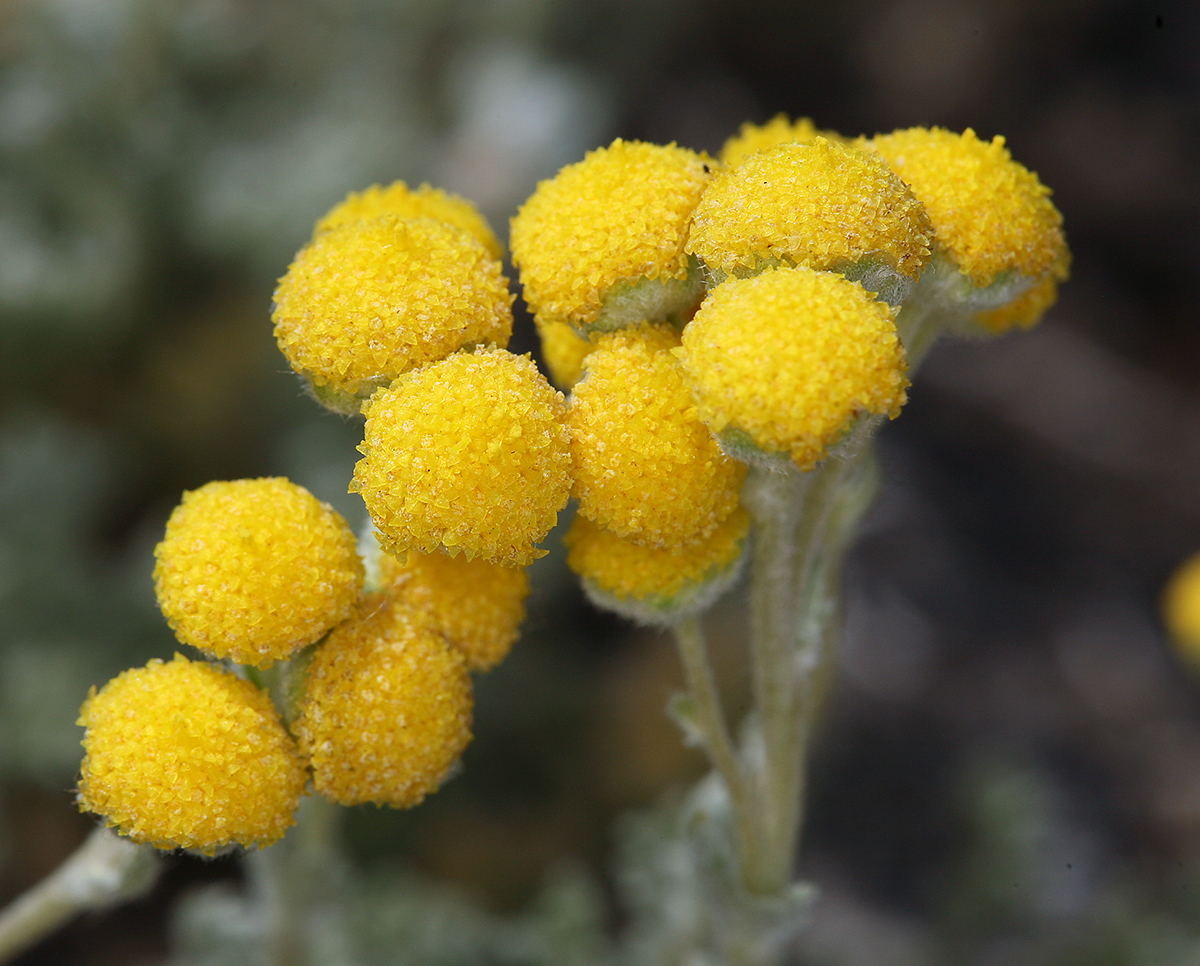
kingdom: Plantae
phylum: Tracheophyta
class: Magnoliopsida
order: Asterales
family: Asteraceae
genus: Artemisia
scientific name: Artemisia potentilloides
